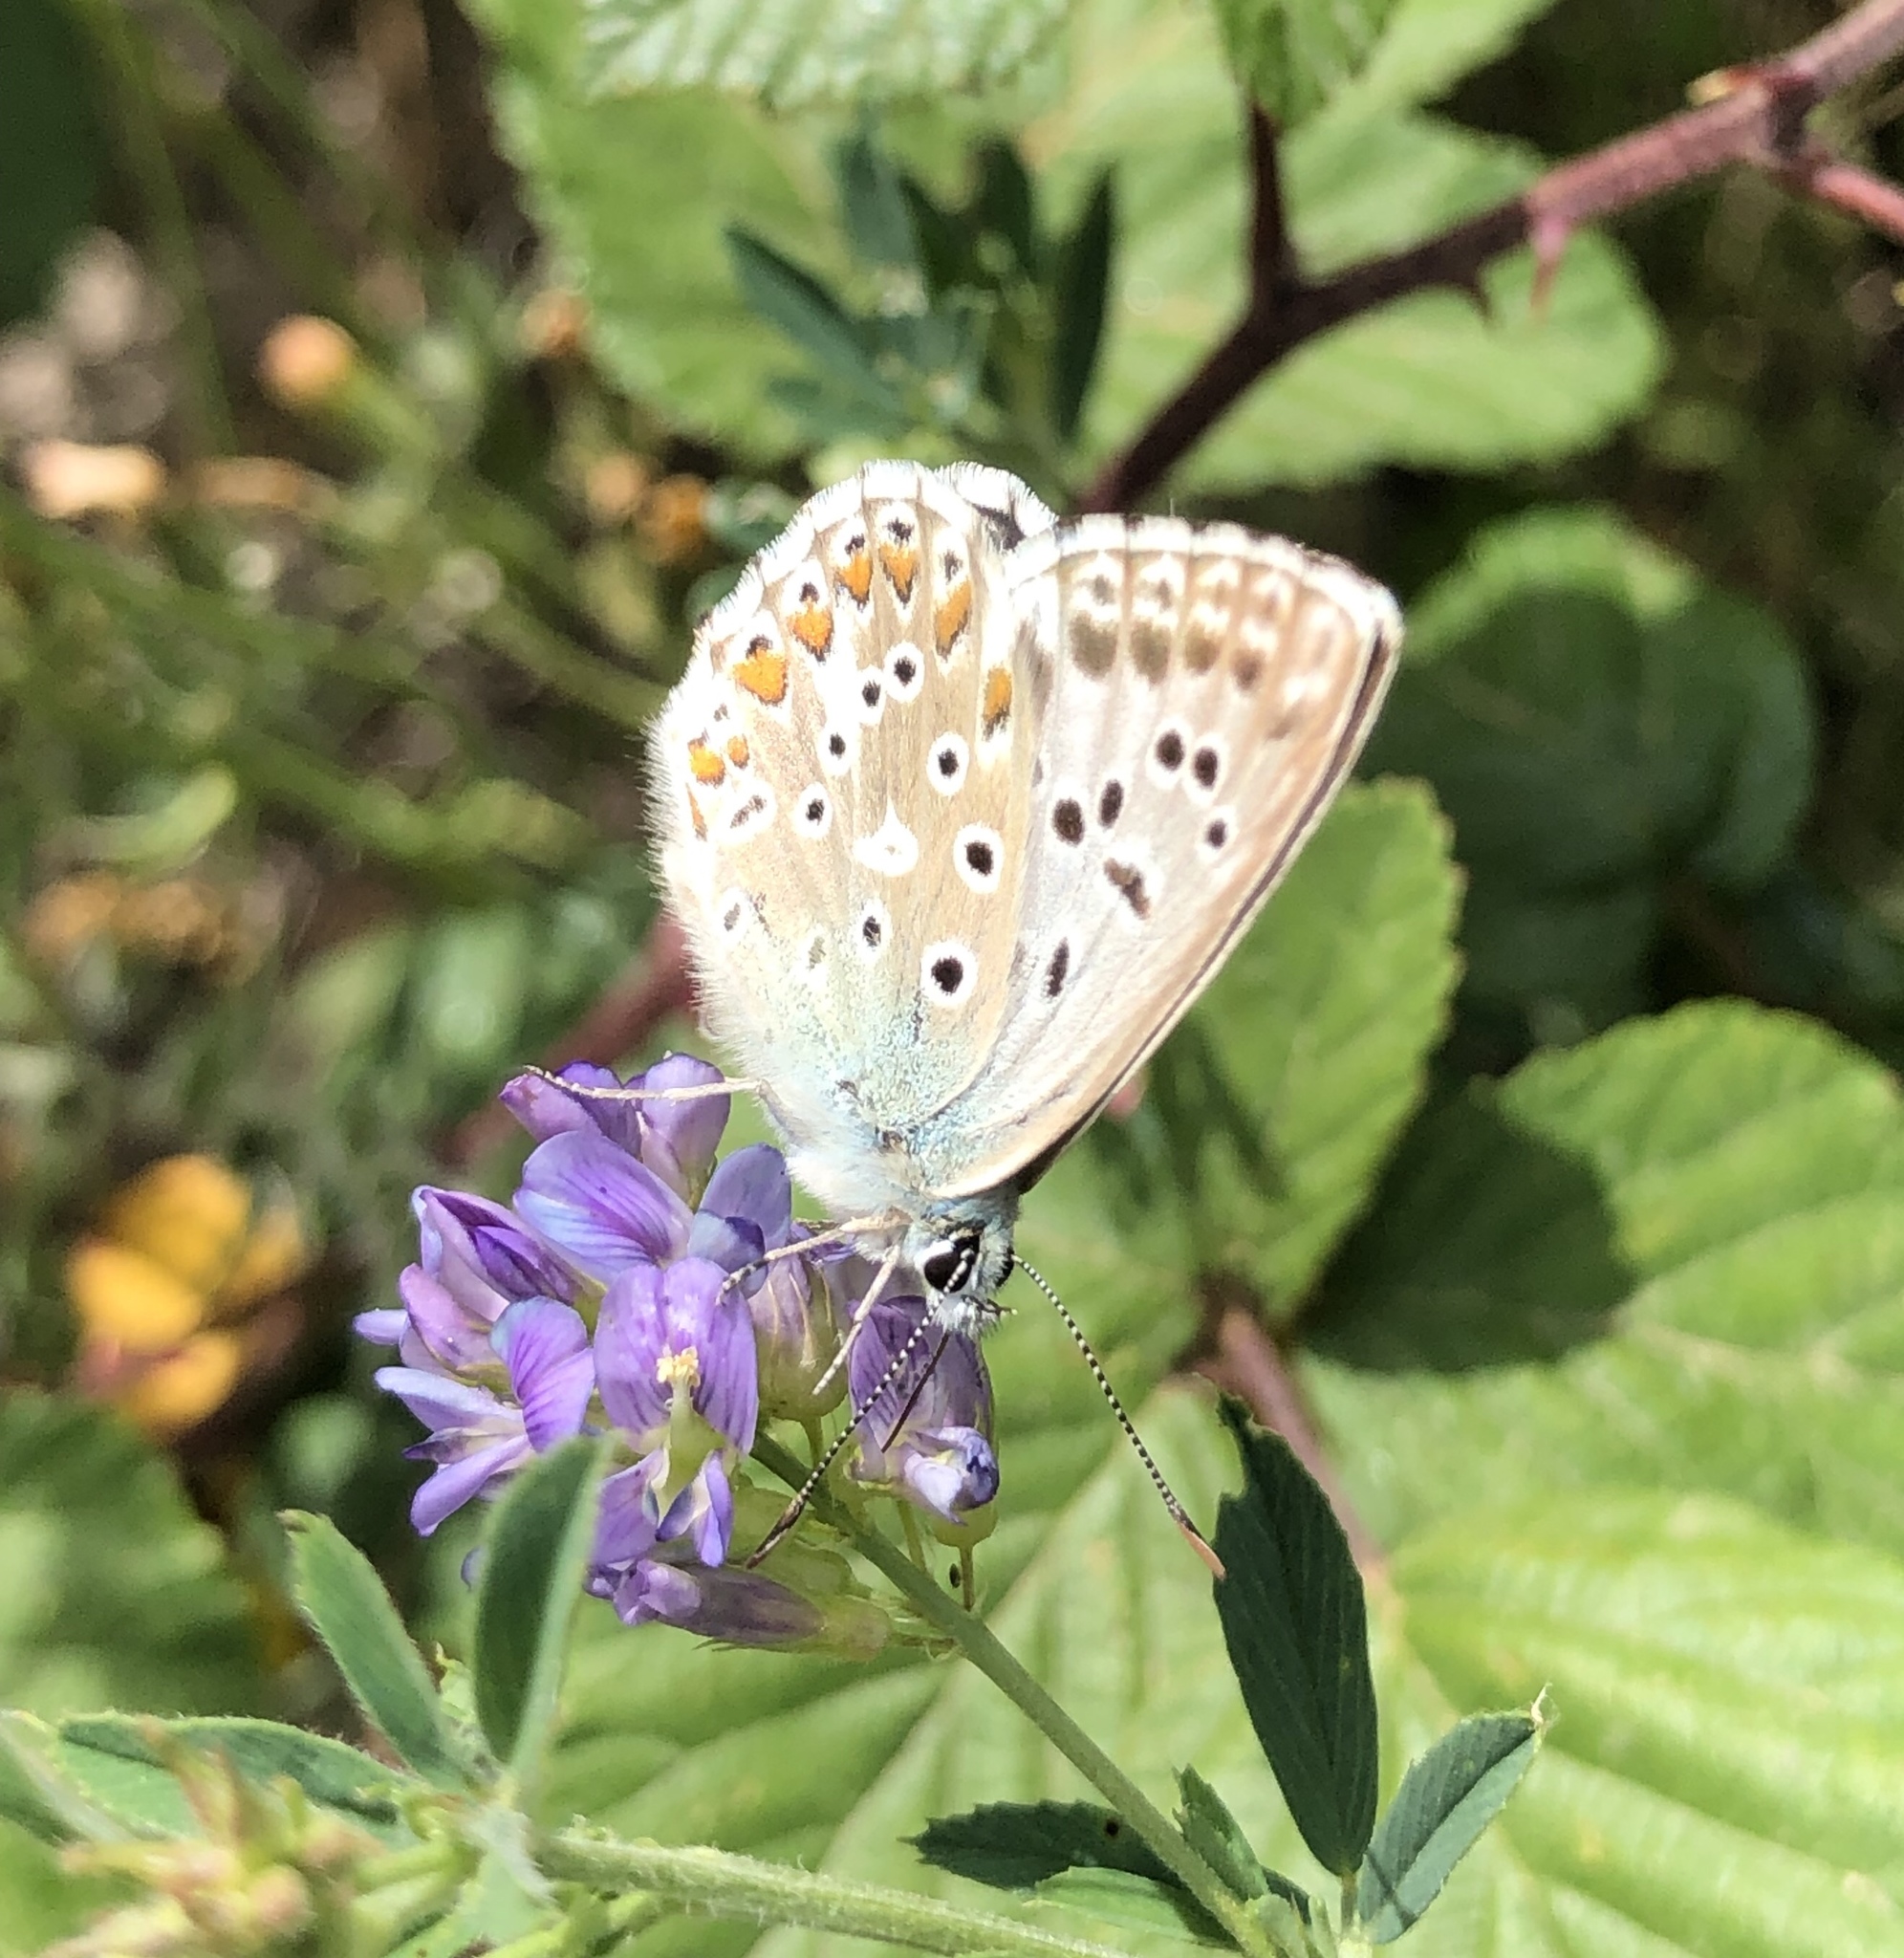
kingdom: Animalia
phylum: Arthropoda
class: Insecta
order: Lepidoptera
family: Lycaenidae
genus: Lysandra
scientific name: Lysandra hispana
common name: Provence chalkhill blue
